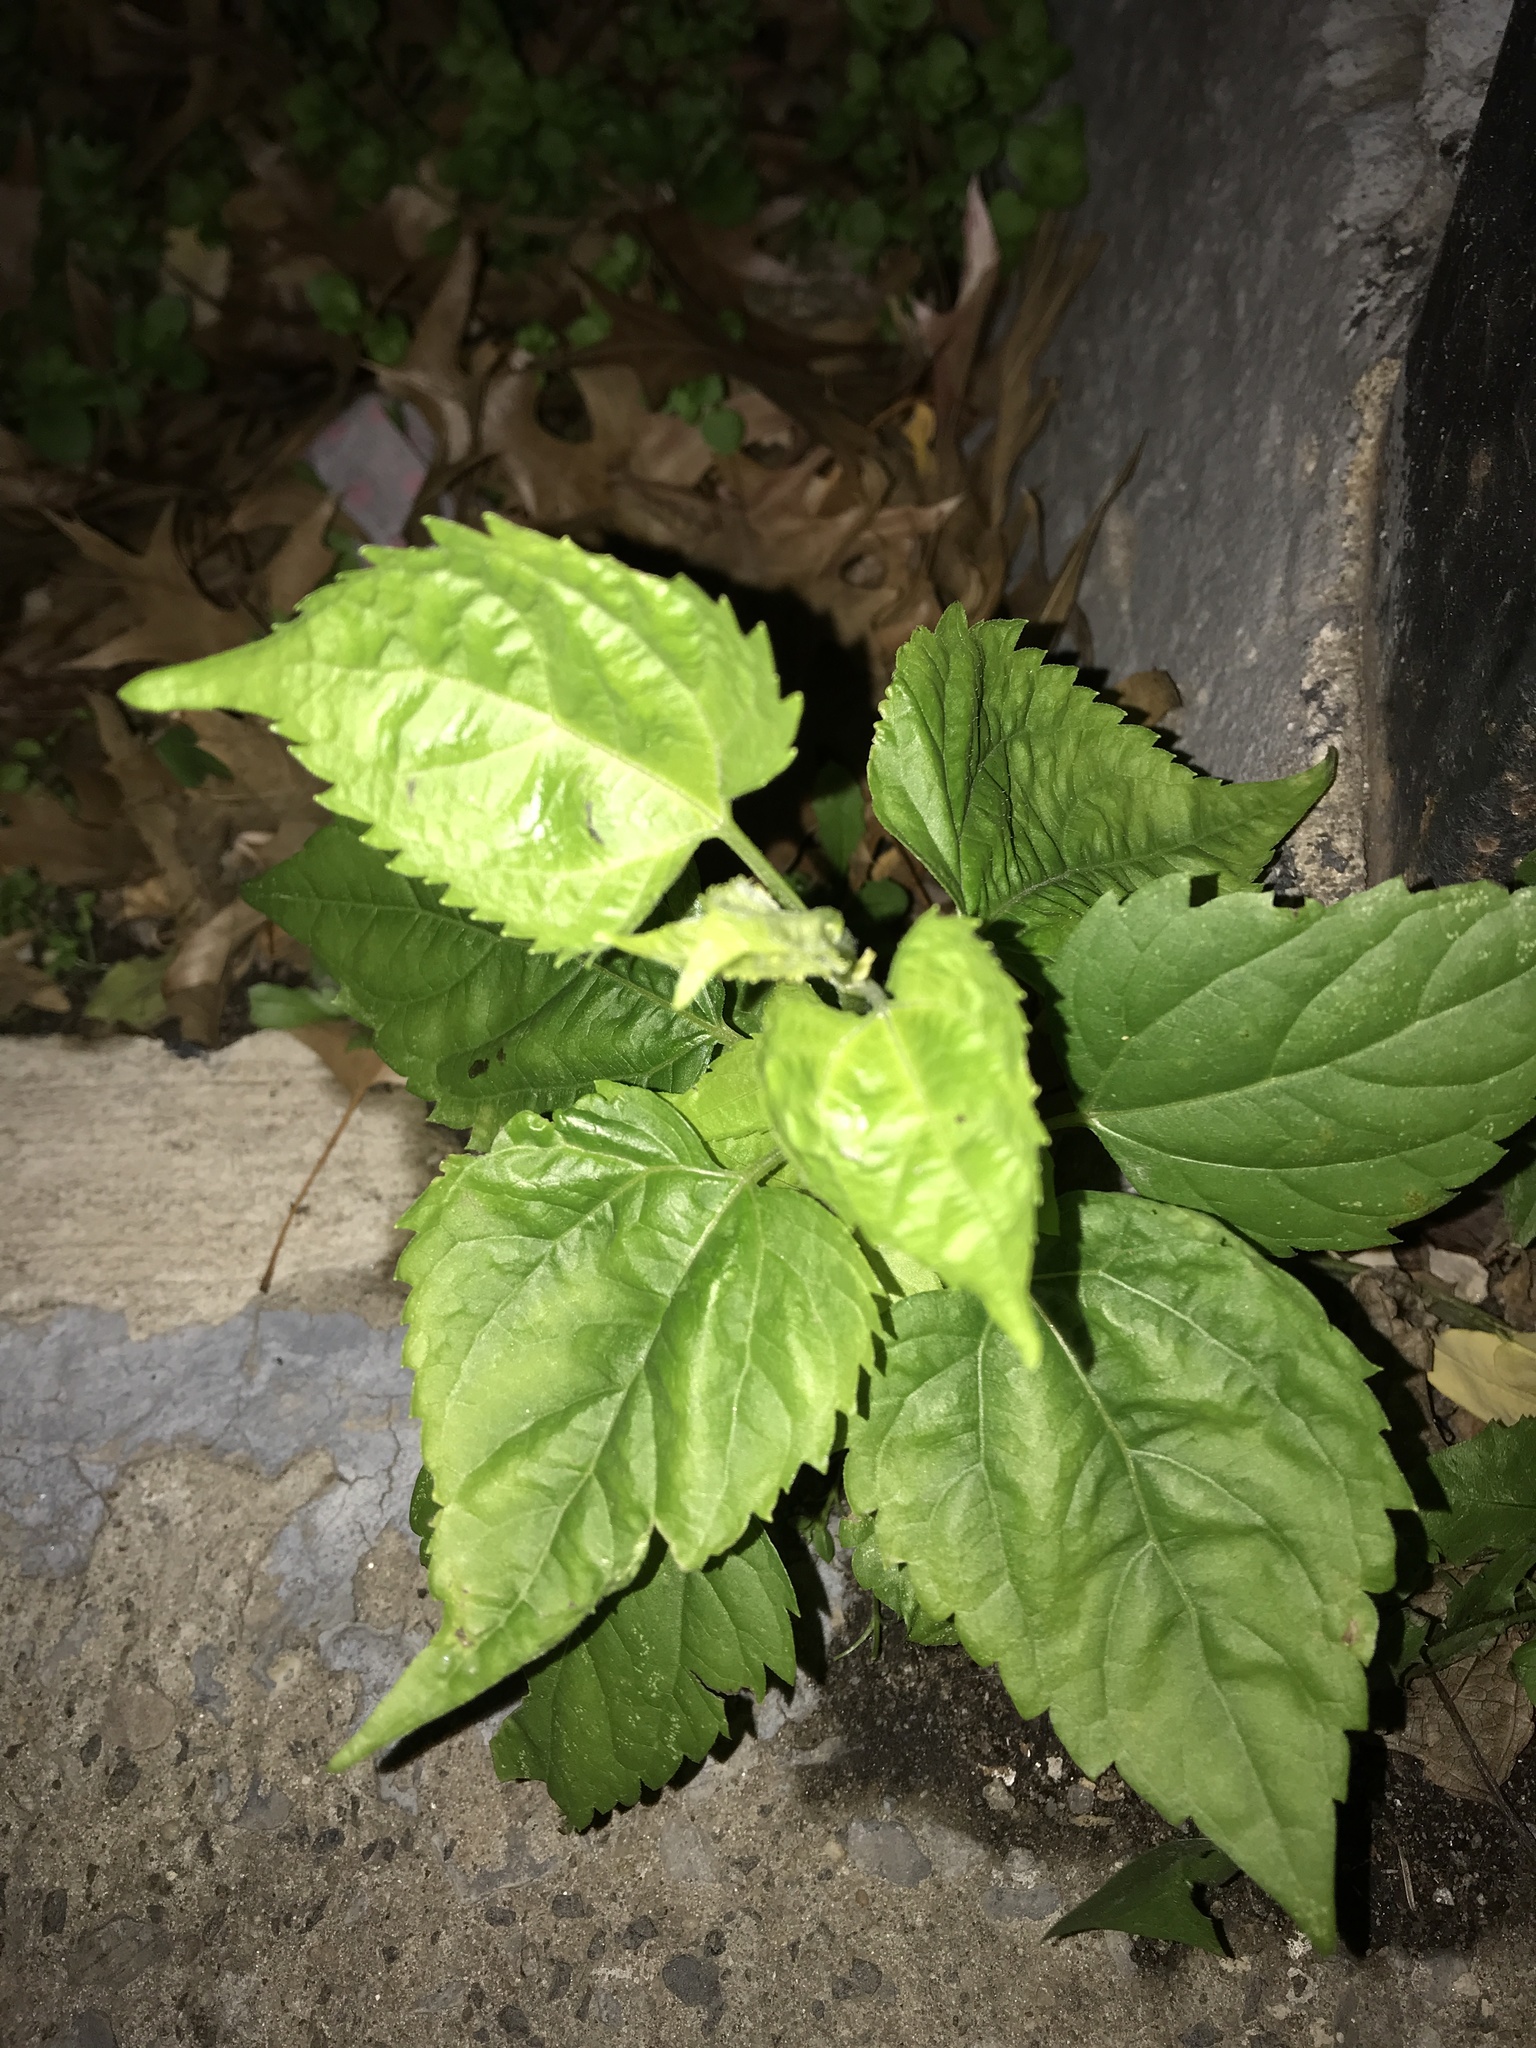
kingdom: Plantae
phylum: Tracheophyta
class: Magnoliopsida
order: Asterales
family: Asteraceae
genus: Ageratina
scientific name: Ageratina altissima
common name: White snakeroot
